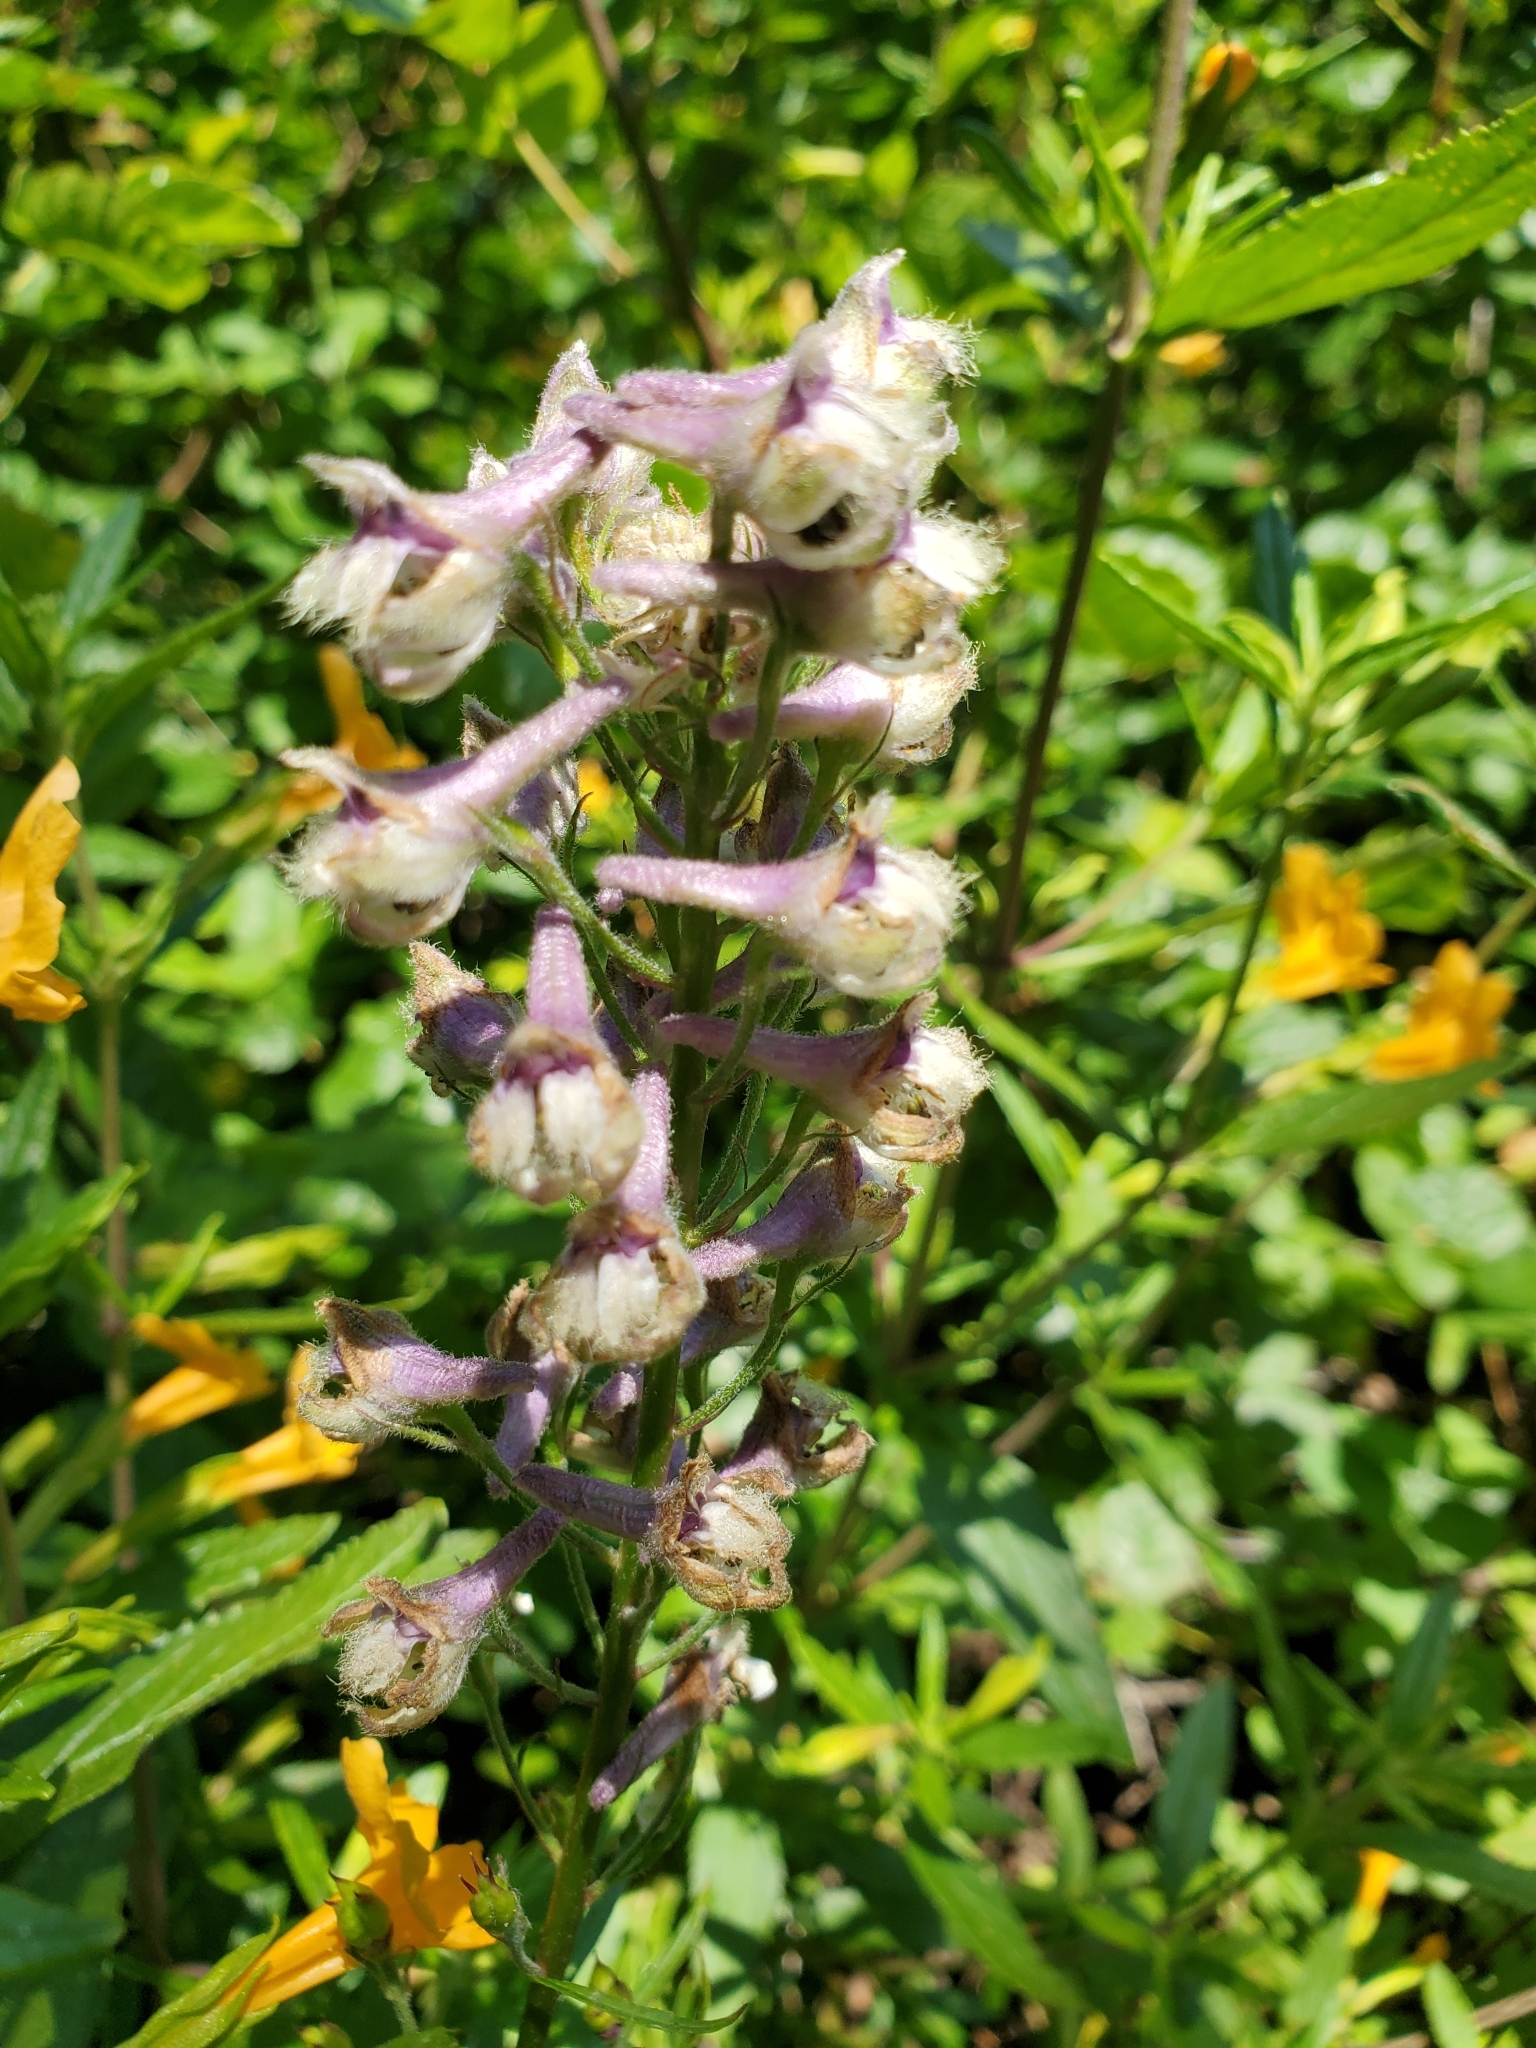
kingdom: Plantae
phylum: Tracheophyta
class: Magnoliopsida
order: Ranunculales
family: Ranunculaceae
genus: Delphinium
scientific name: Delphinium californicum
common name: California larkspur
